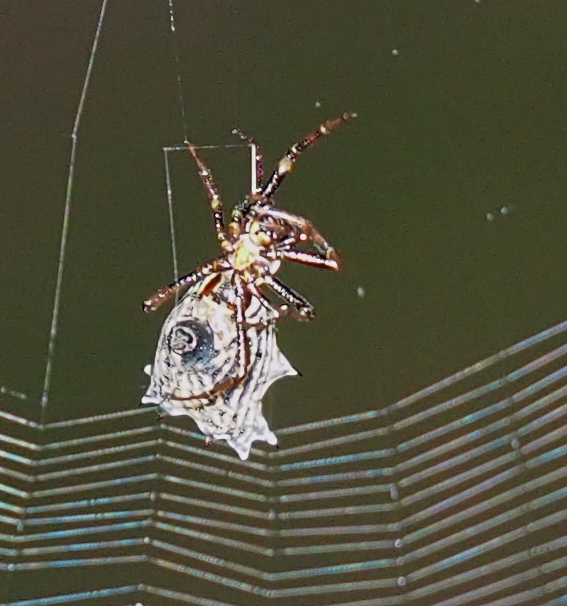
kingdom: Animalia
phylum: Arthropoda
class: Arachnida
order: Araneae
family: Araneidae
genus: Micrathena
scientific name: Micrathena gracilis
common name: Orb weavers
